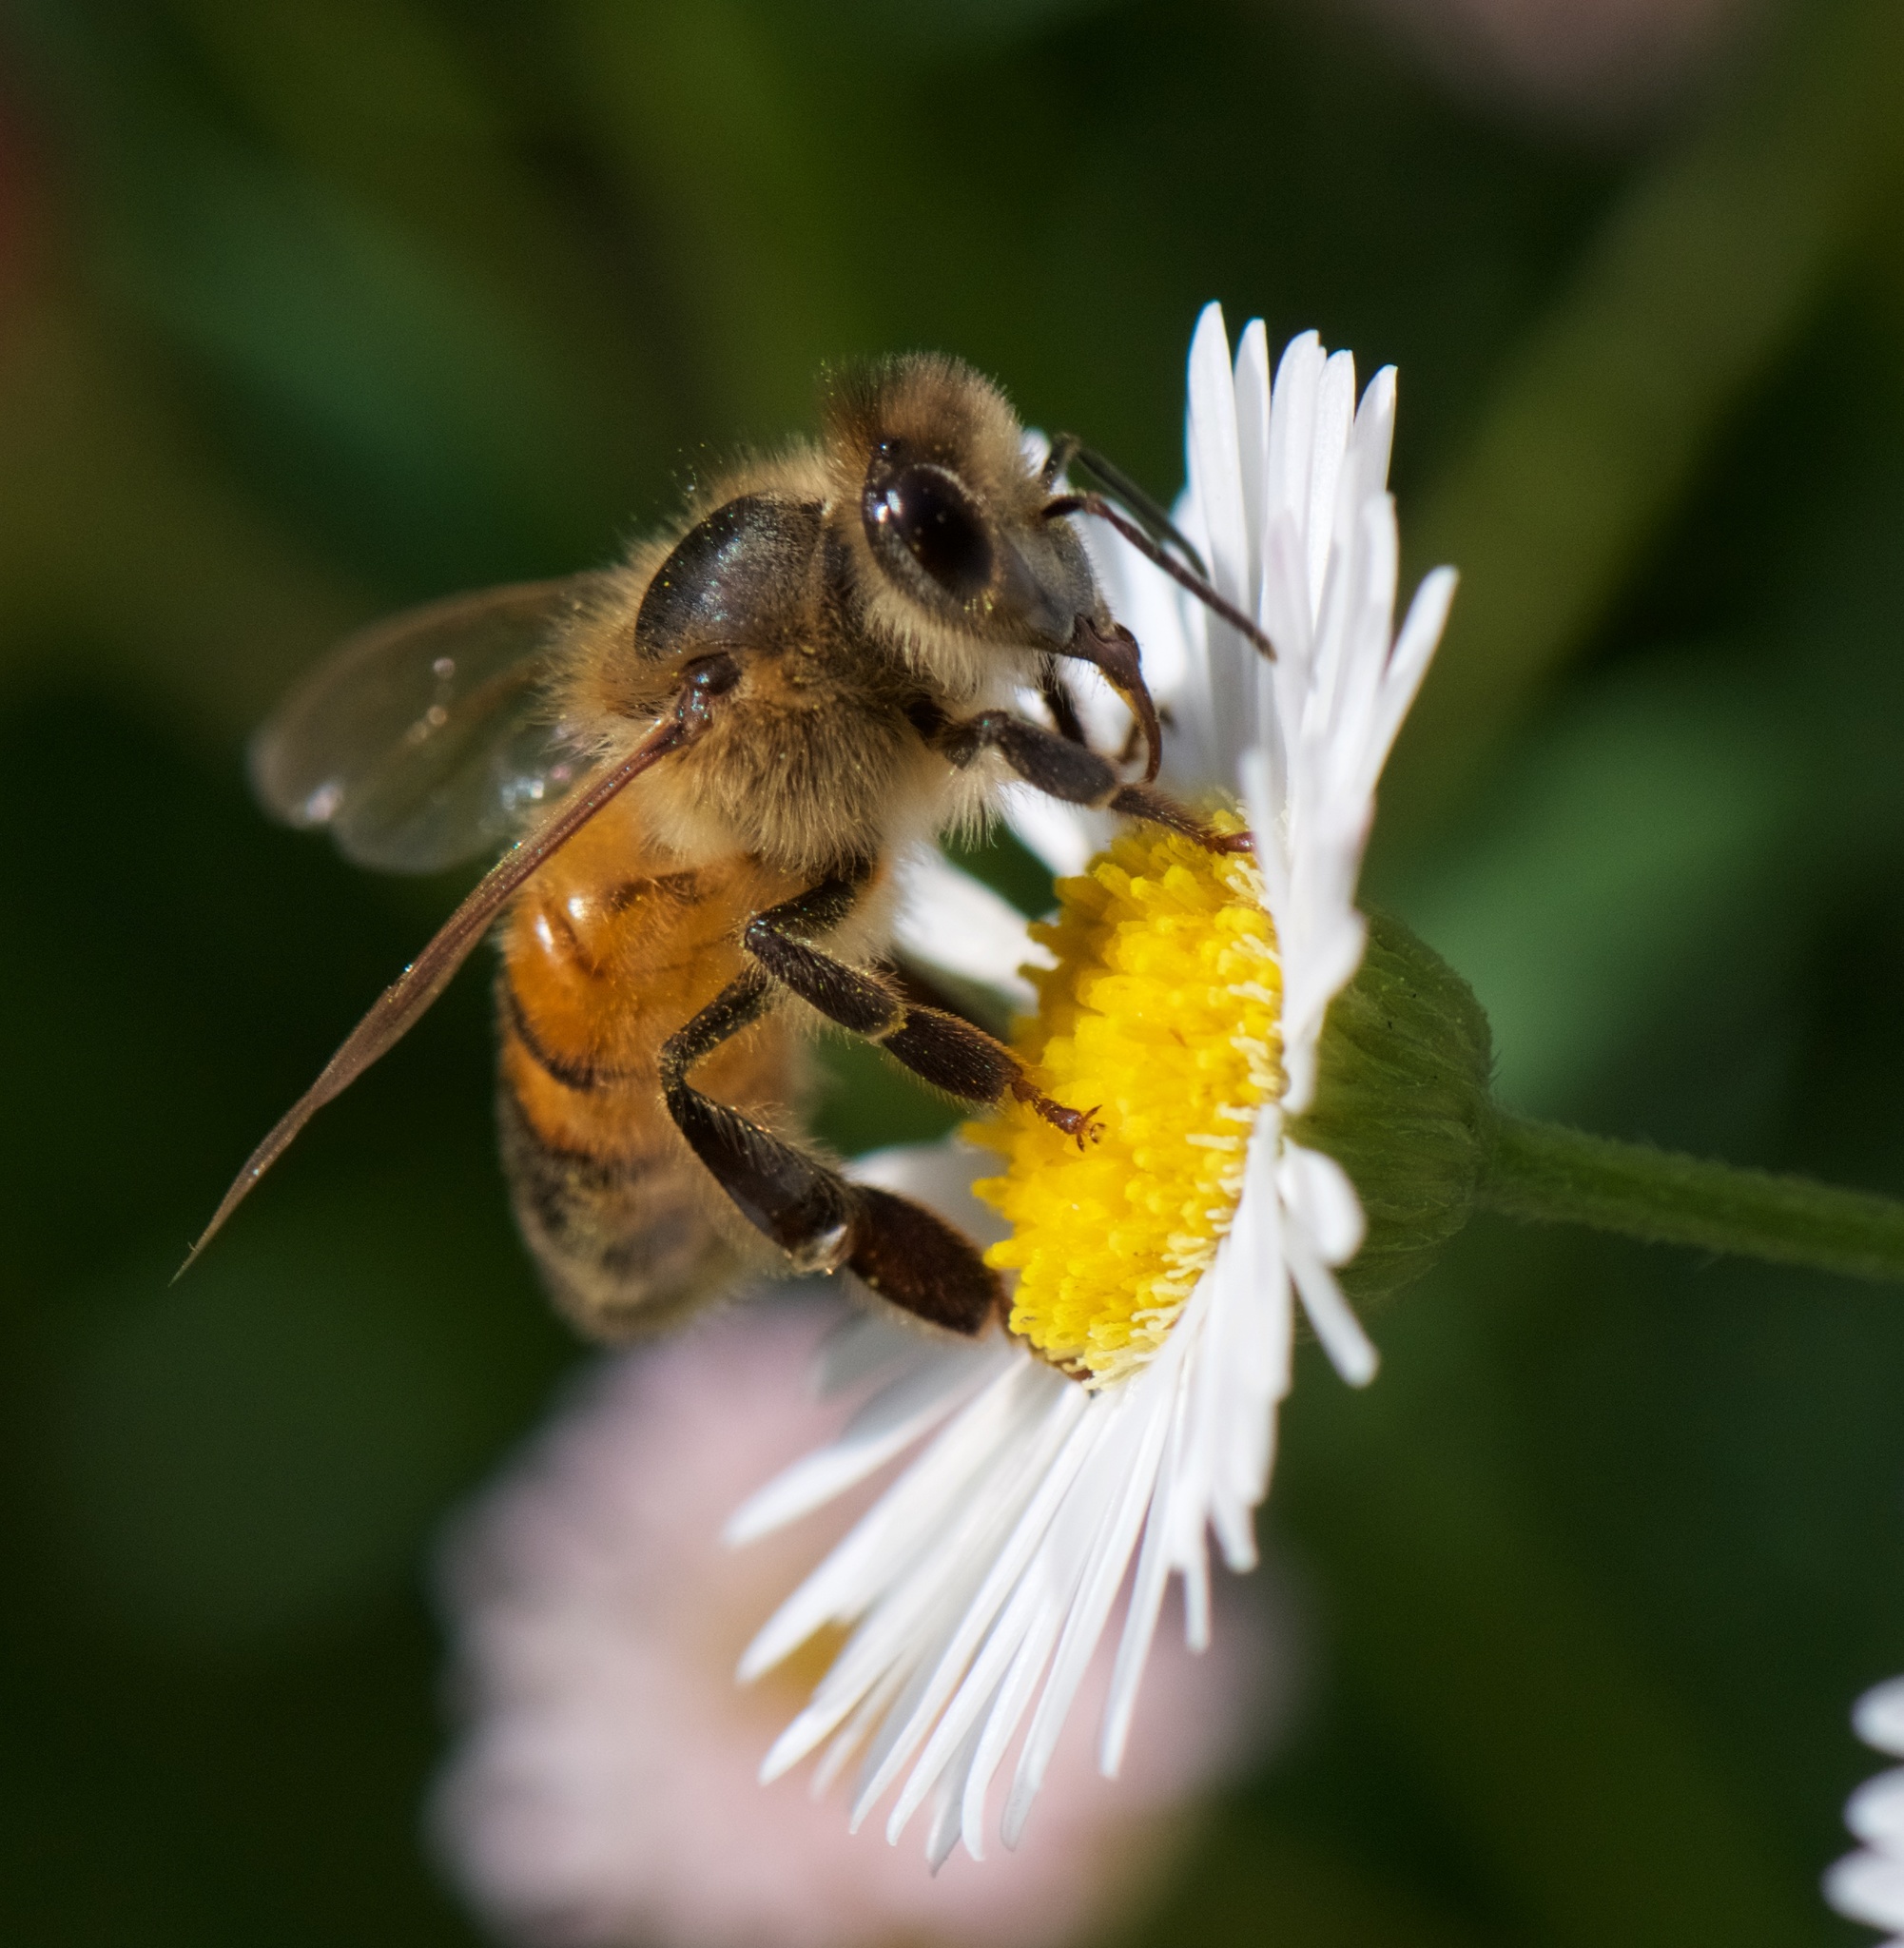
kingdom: Animalia
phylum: Arthropoda
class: Insecta
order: Hymenoptera
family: Apidae
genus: Apis
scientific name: Apis mellifera
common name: Honey bee
